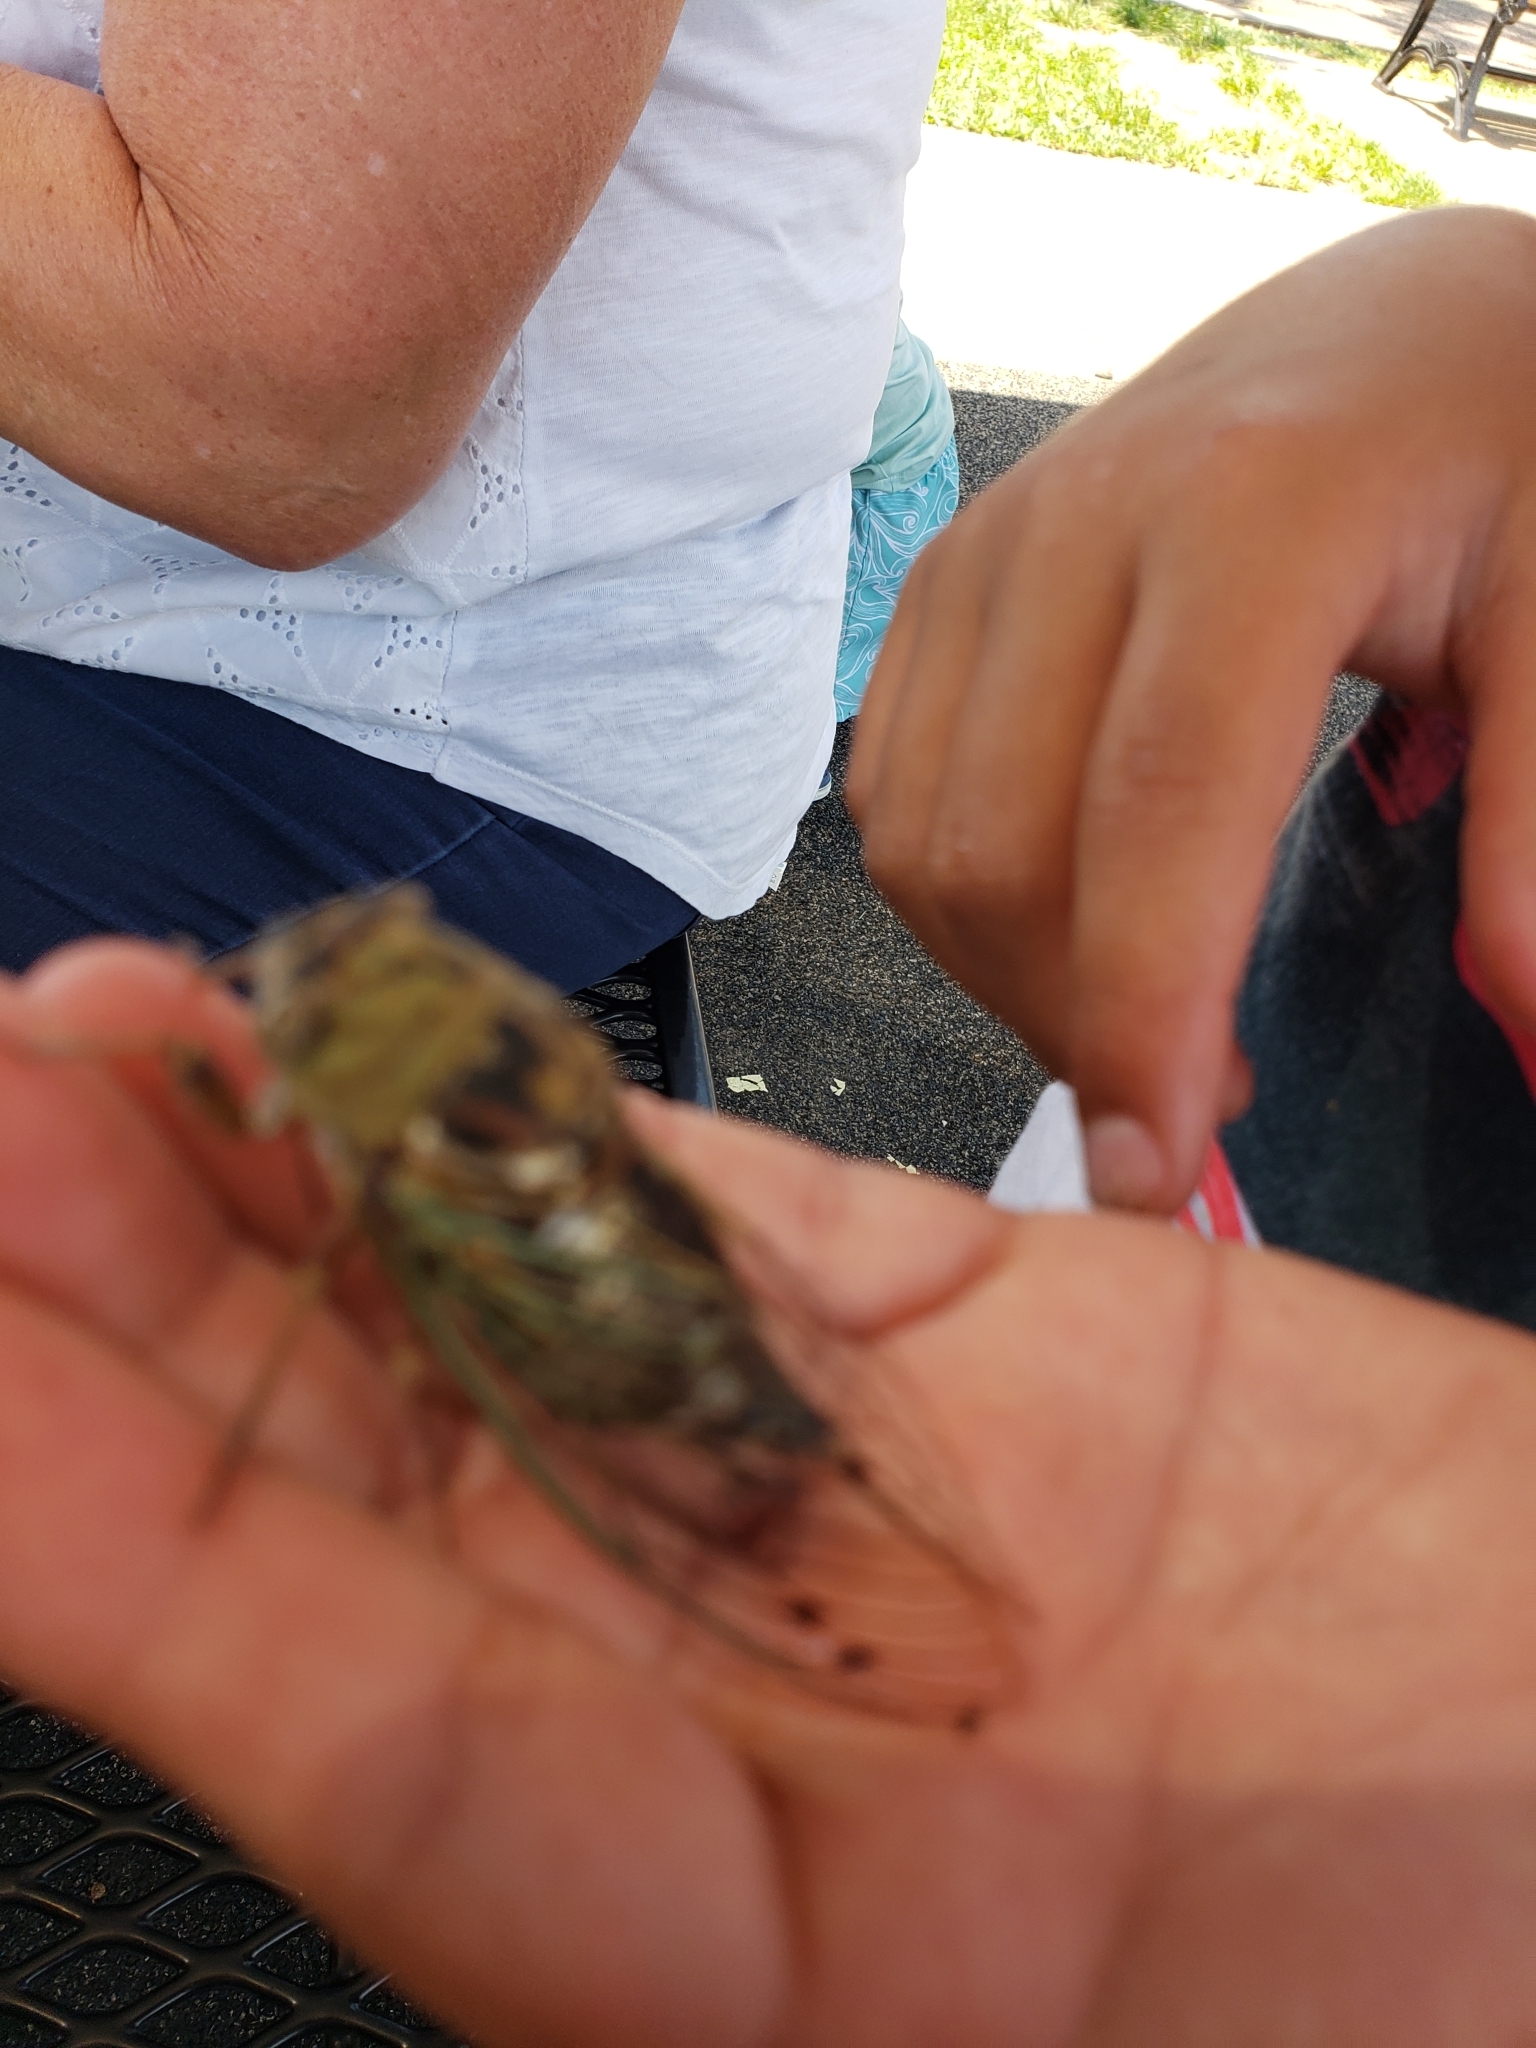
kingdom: Animalia
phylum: Arthropoda
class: Insecta
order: Hemiptera
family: Cicadidae
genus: Megatibicen
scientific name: Megatibicen resh
